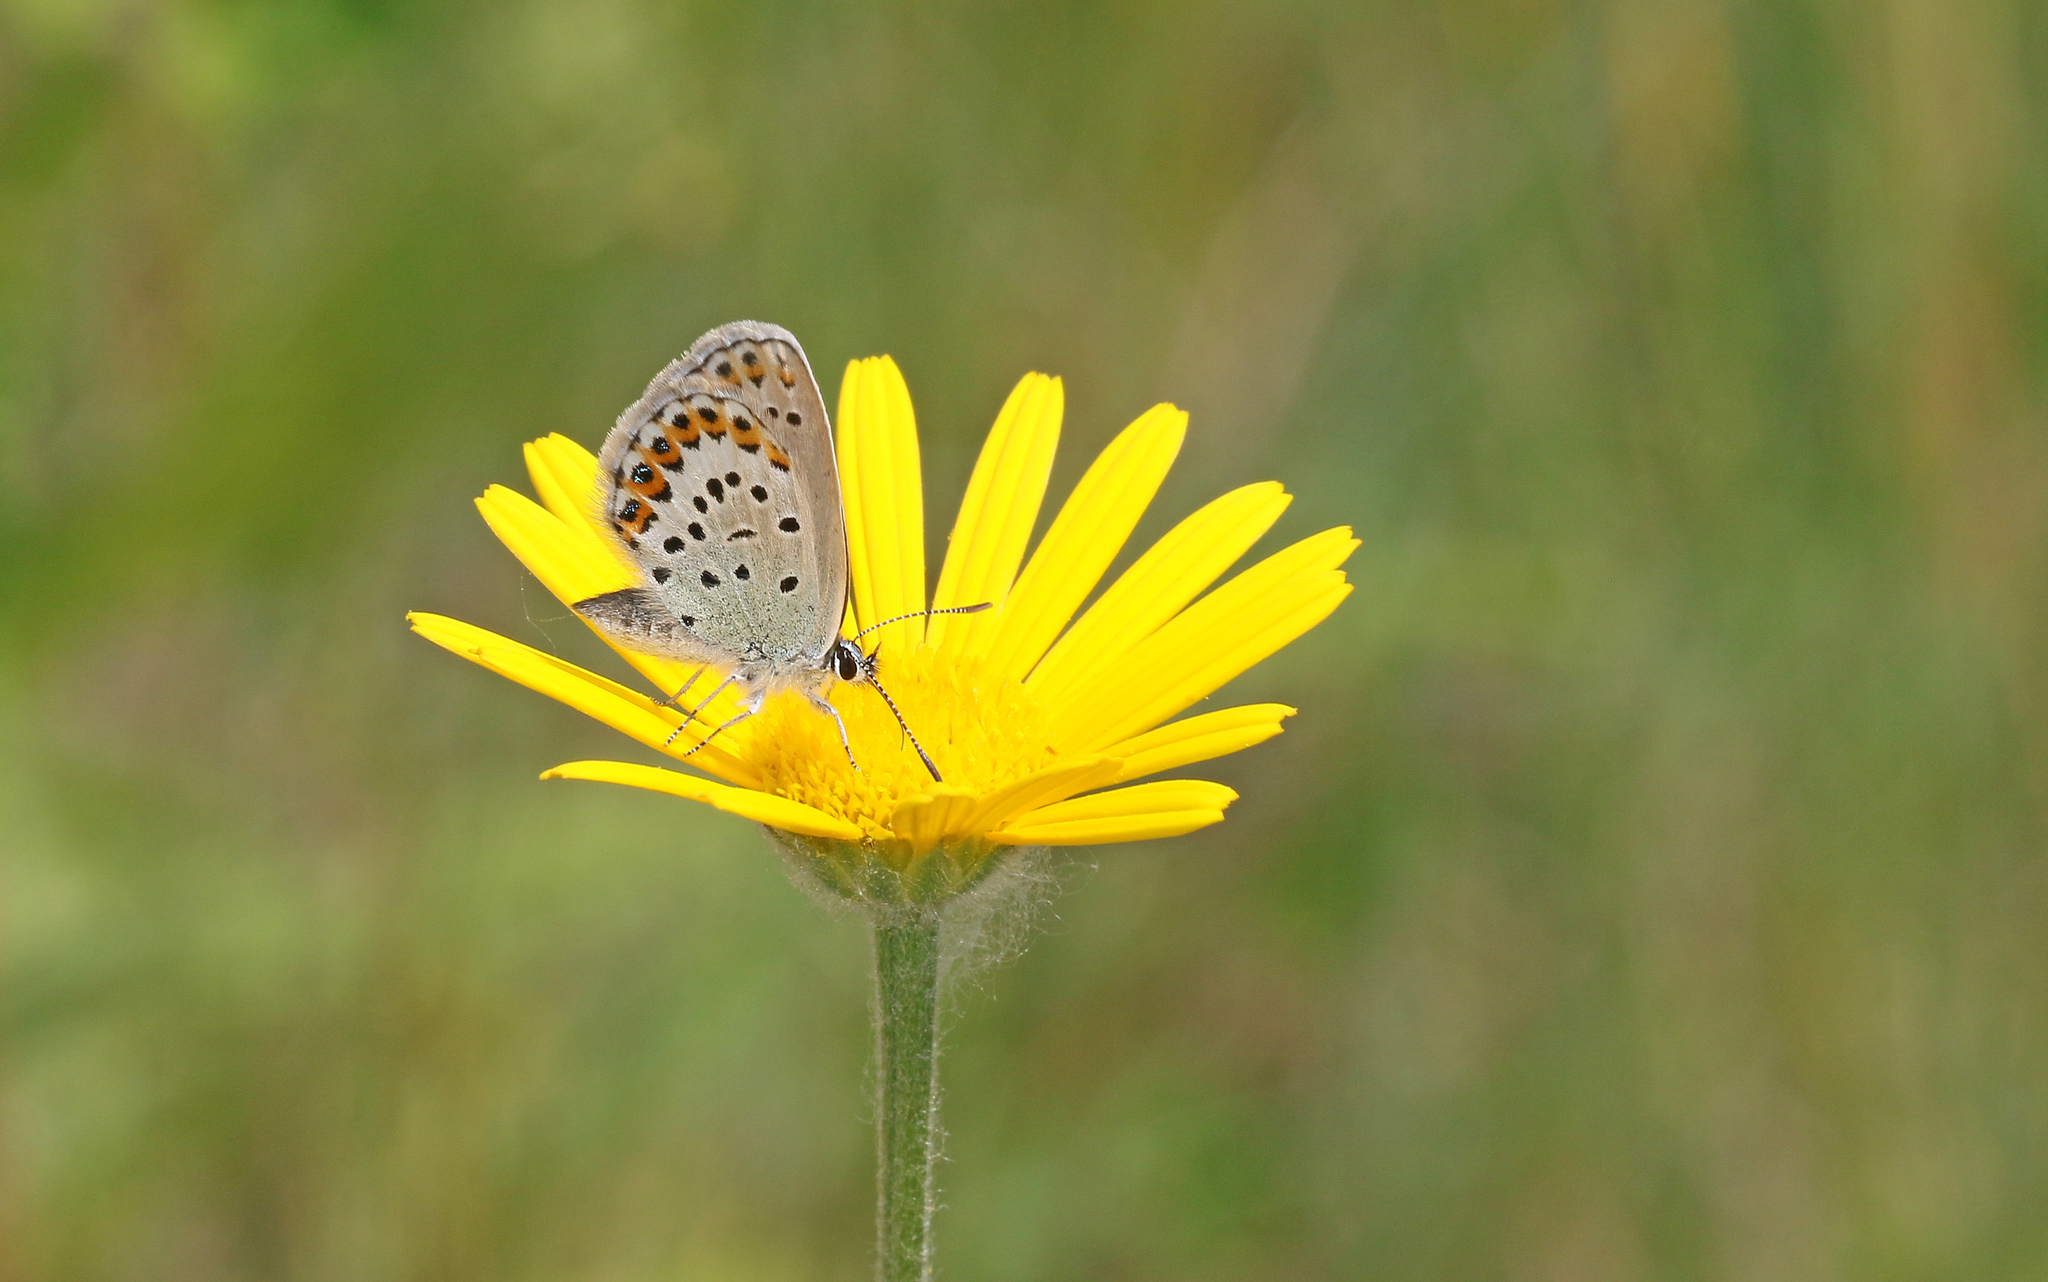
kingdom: Animalia
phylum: Arthropoda
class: Insecta
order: Lepidoptera
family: Lycaenidae
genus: Lycaeides
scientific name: Lycaeides idas
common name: Northern blue
